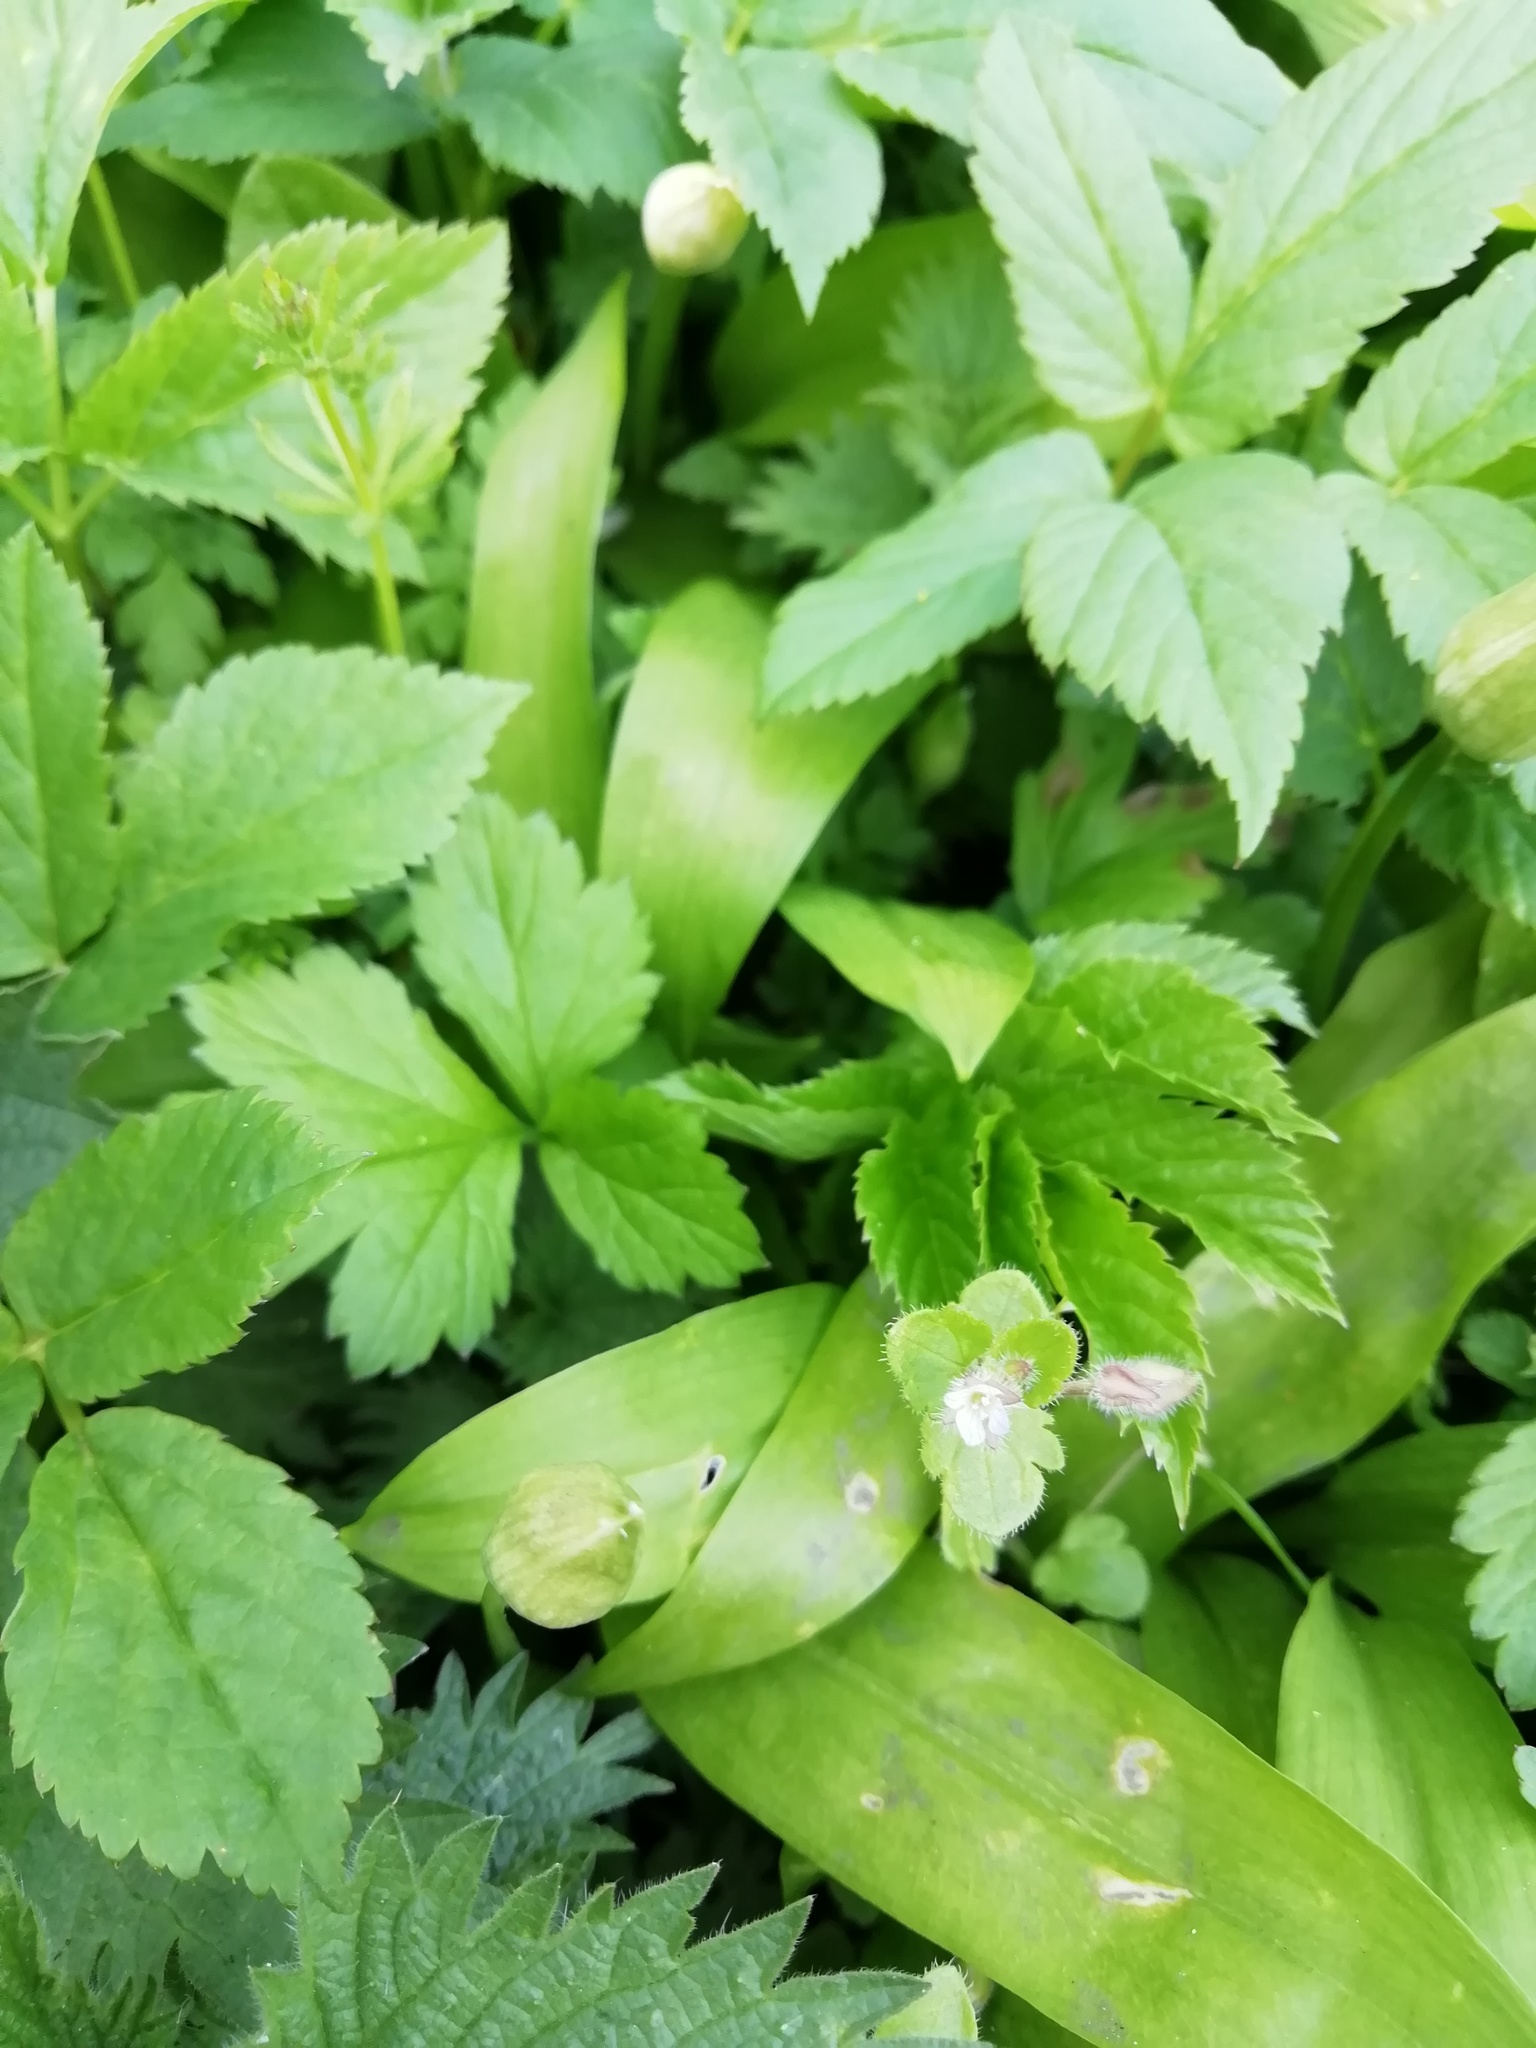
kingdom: Plantae
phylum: Tracheophyta
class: Magnoliopsida
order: Lamiales
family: Plantaginaceae
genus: Veronica
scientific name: Veronica hederifolia
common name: Ivy-leaved speedwell
